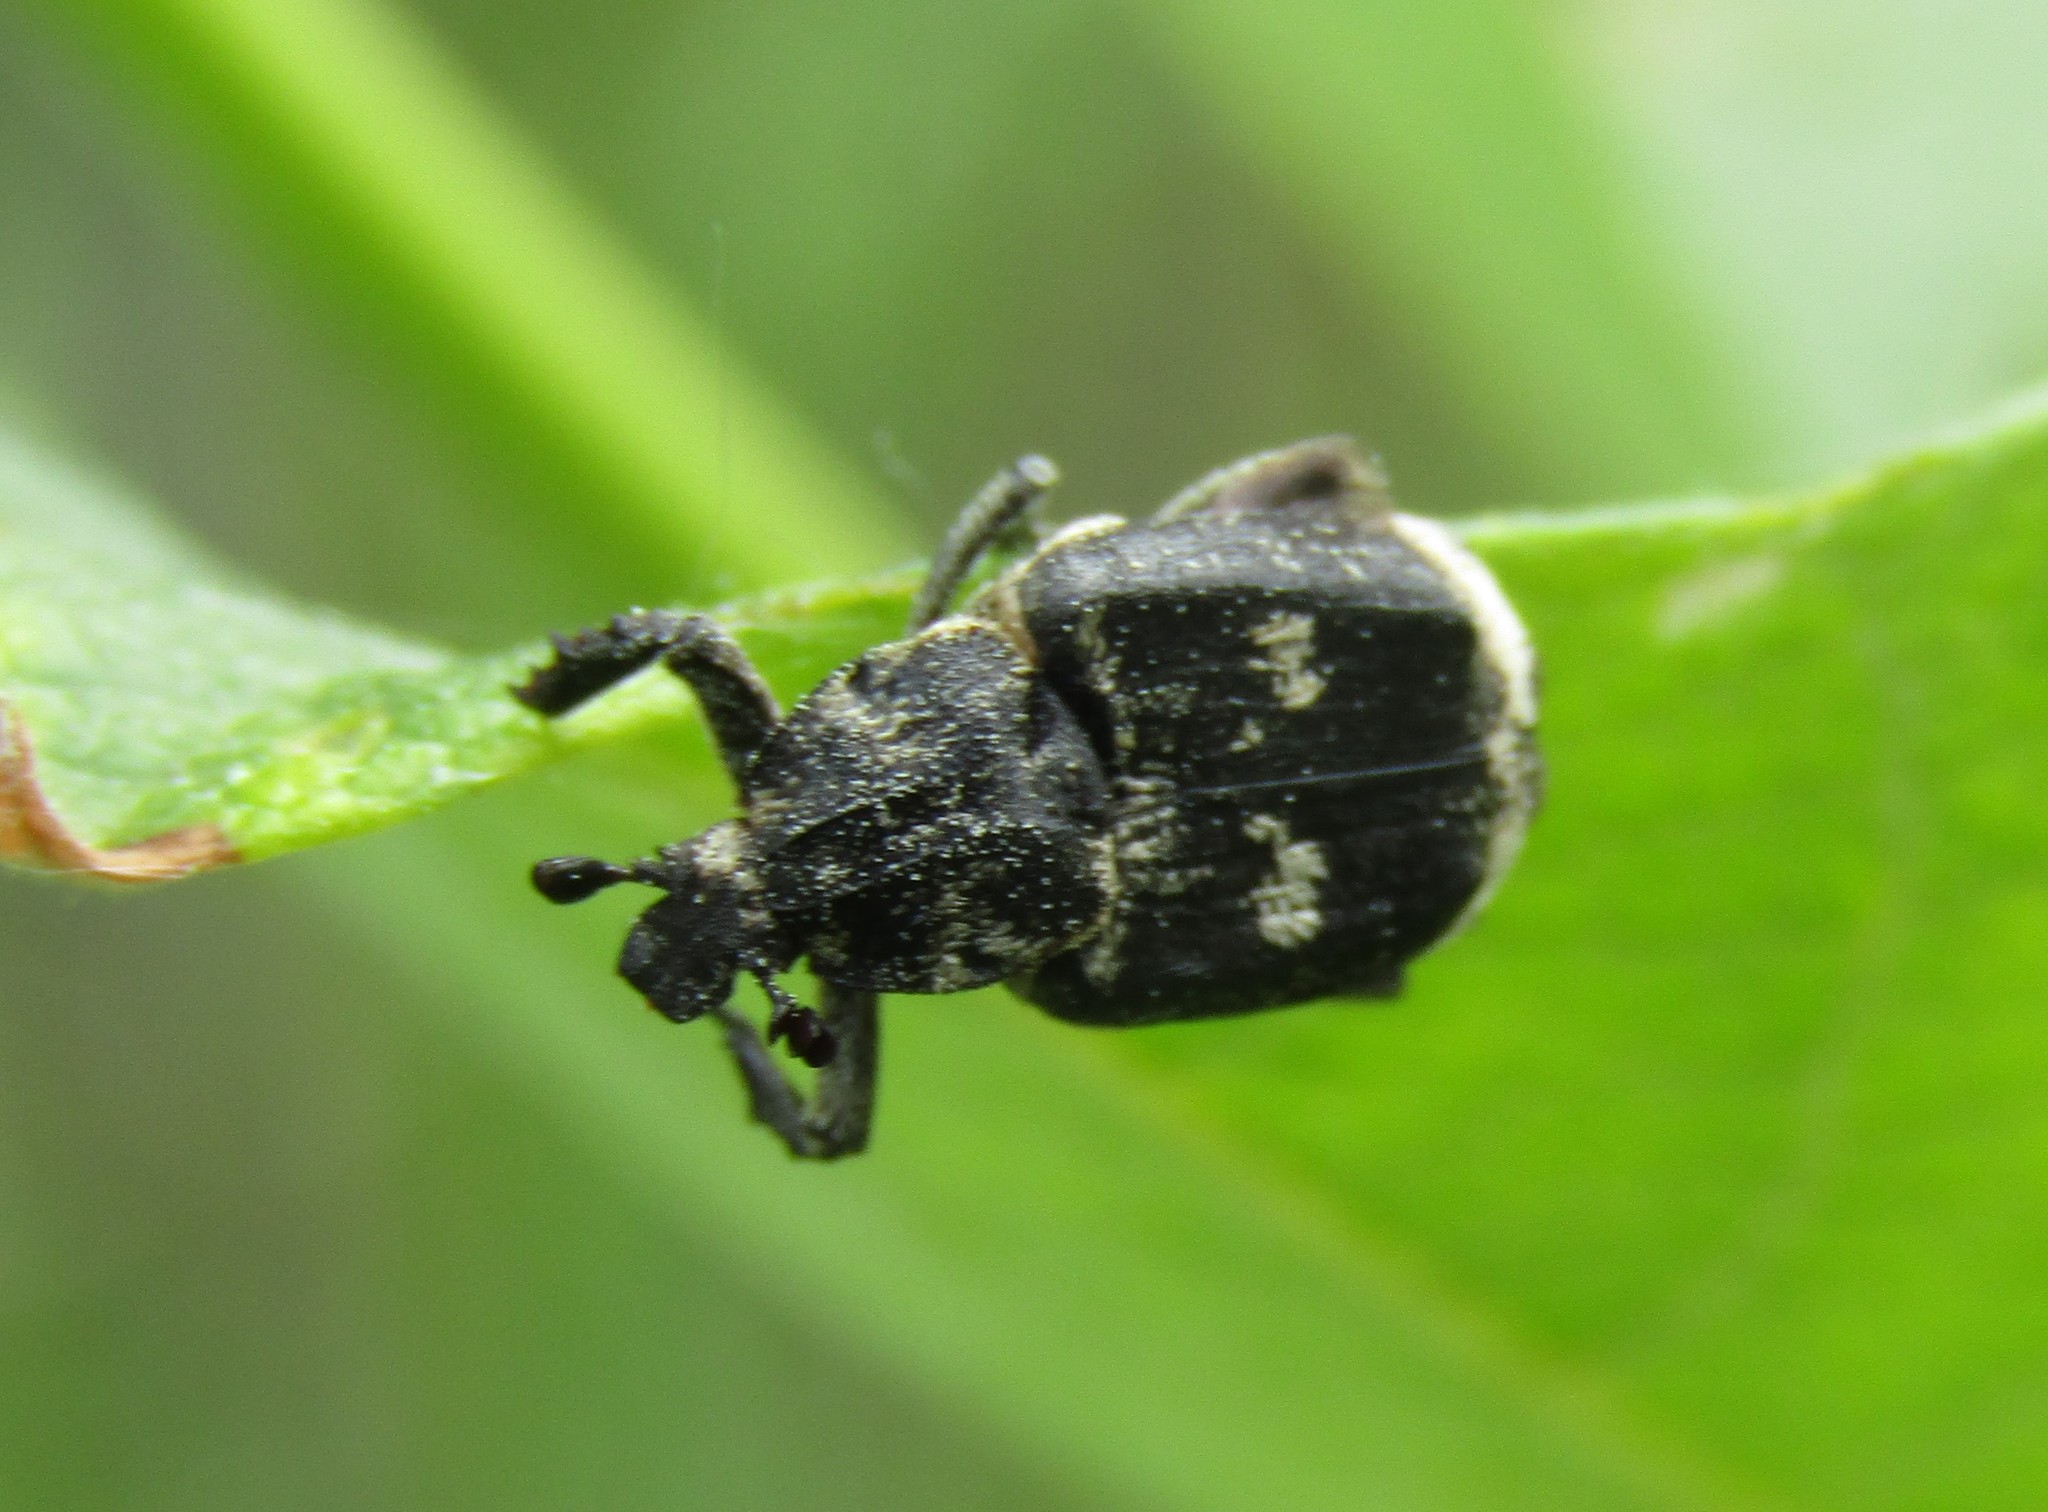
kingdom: Animalia
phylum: Arthropoda
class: Insecta
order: Coleoptera
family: Scarabaeidae
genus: Valgus
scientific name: Valgus hemipterus
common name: Bug flower chafer
